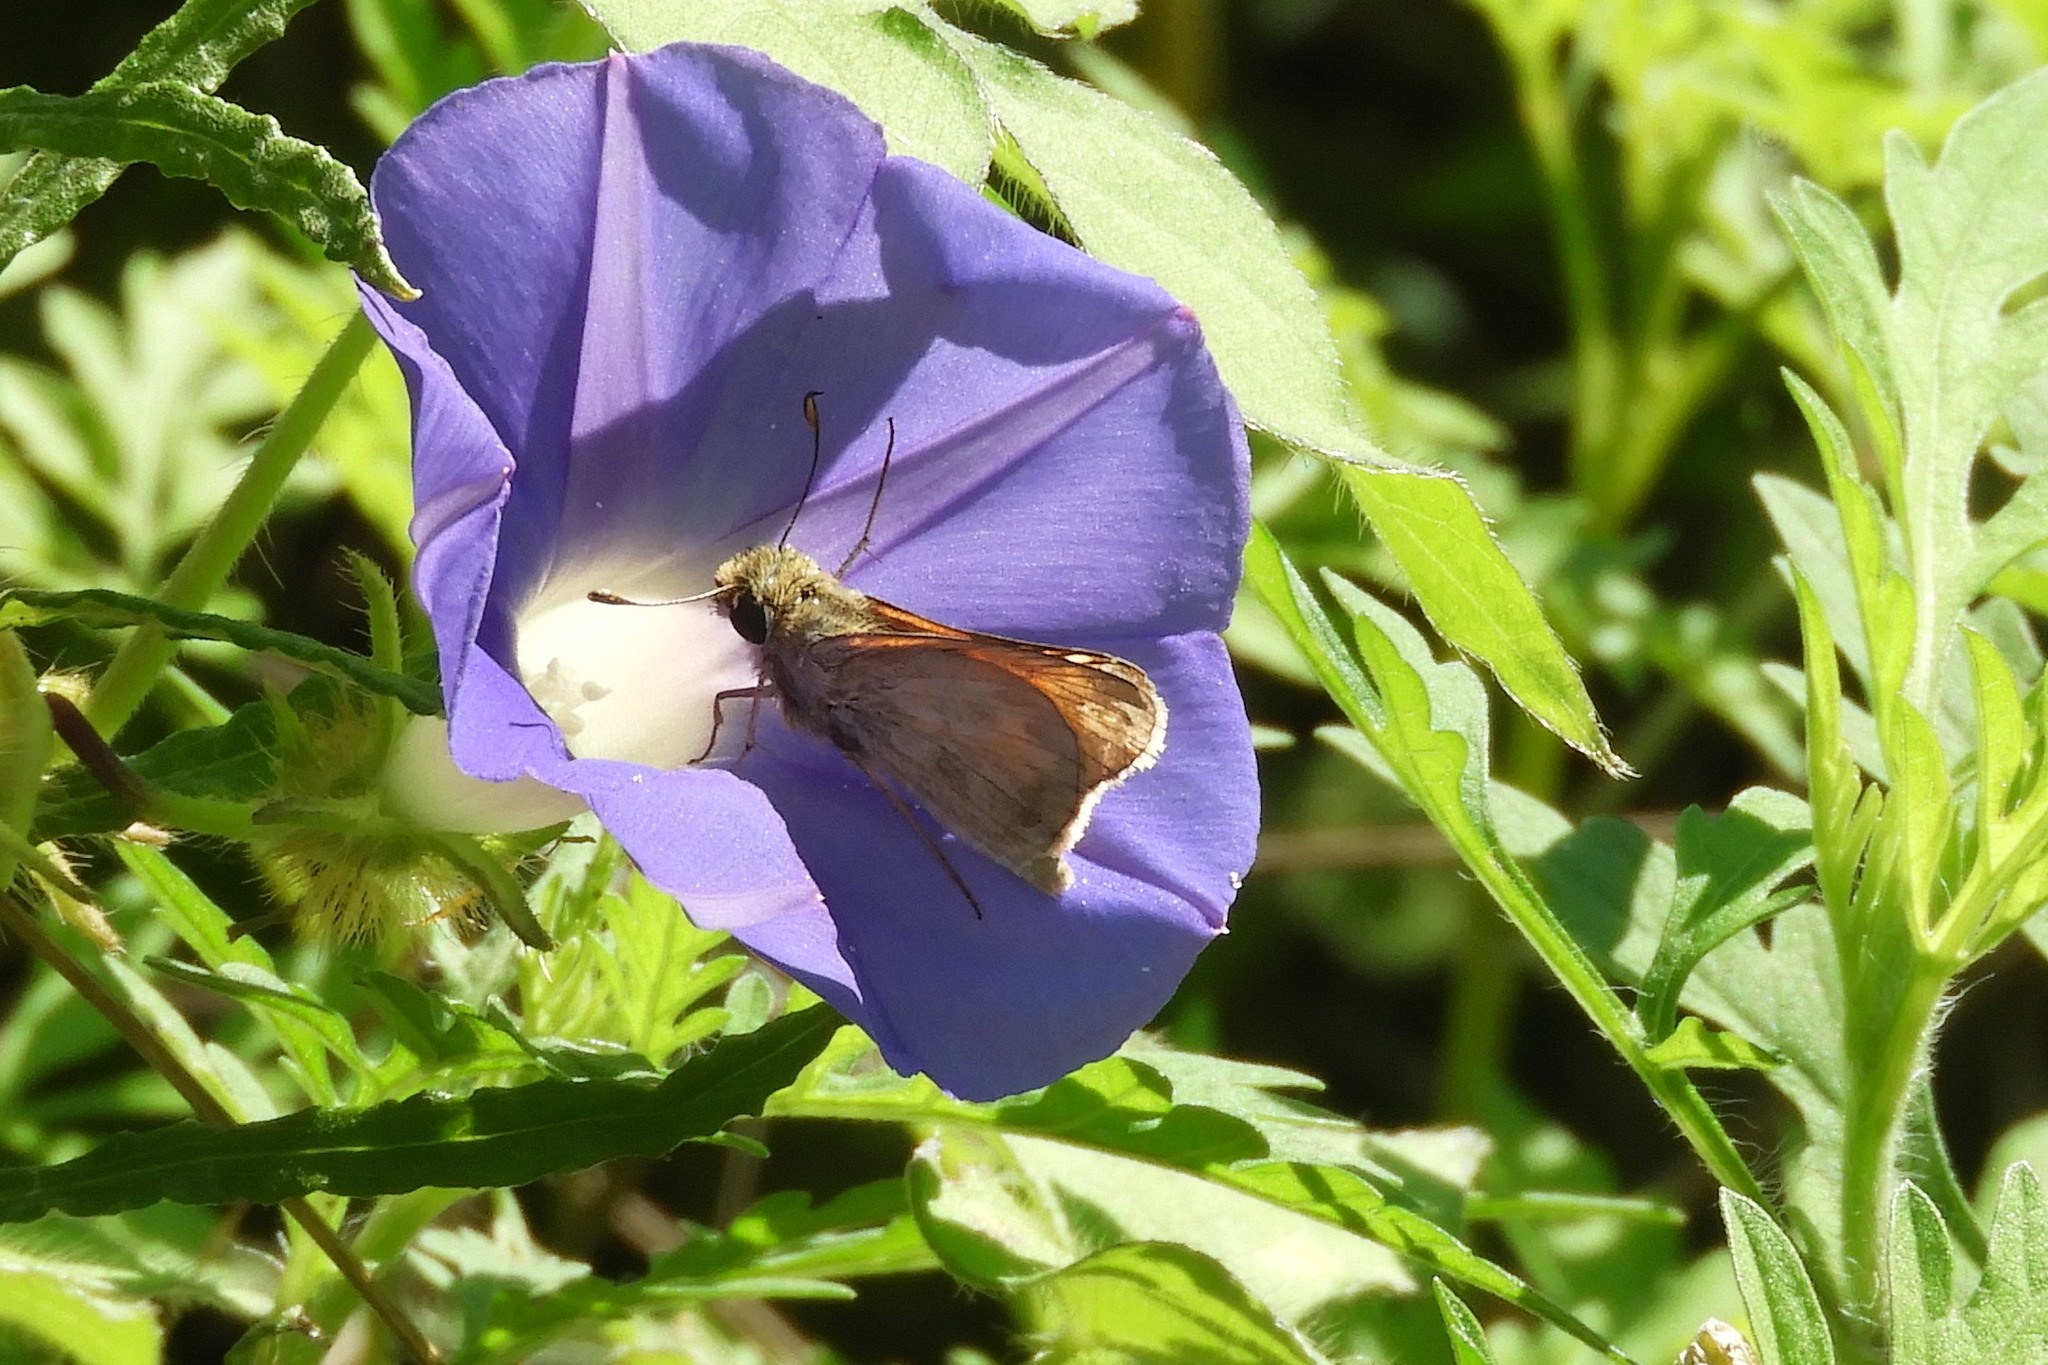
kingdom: Animalia
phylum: Arthropoda
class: Insecta
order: Lepidoptera
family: Hesperiidae
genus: Atalopedes
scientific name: Atalopedes
